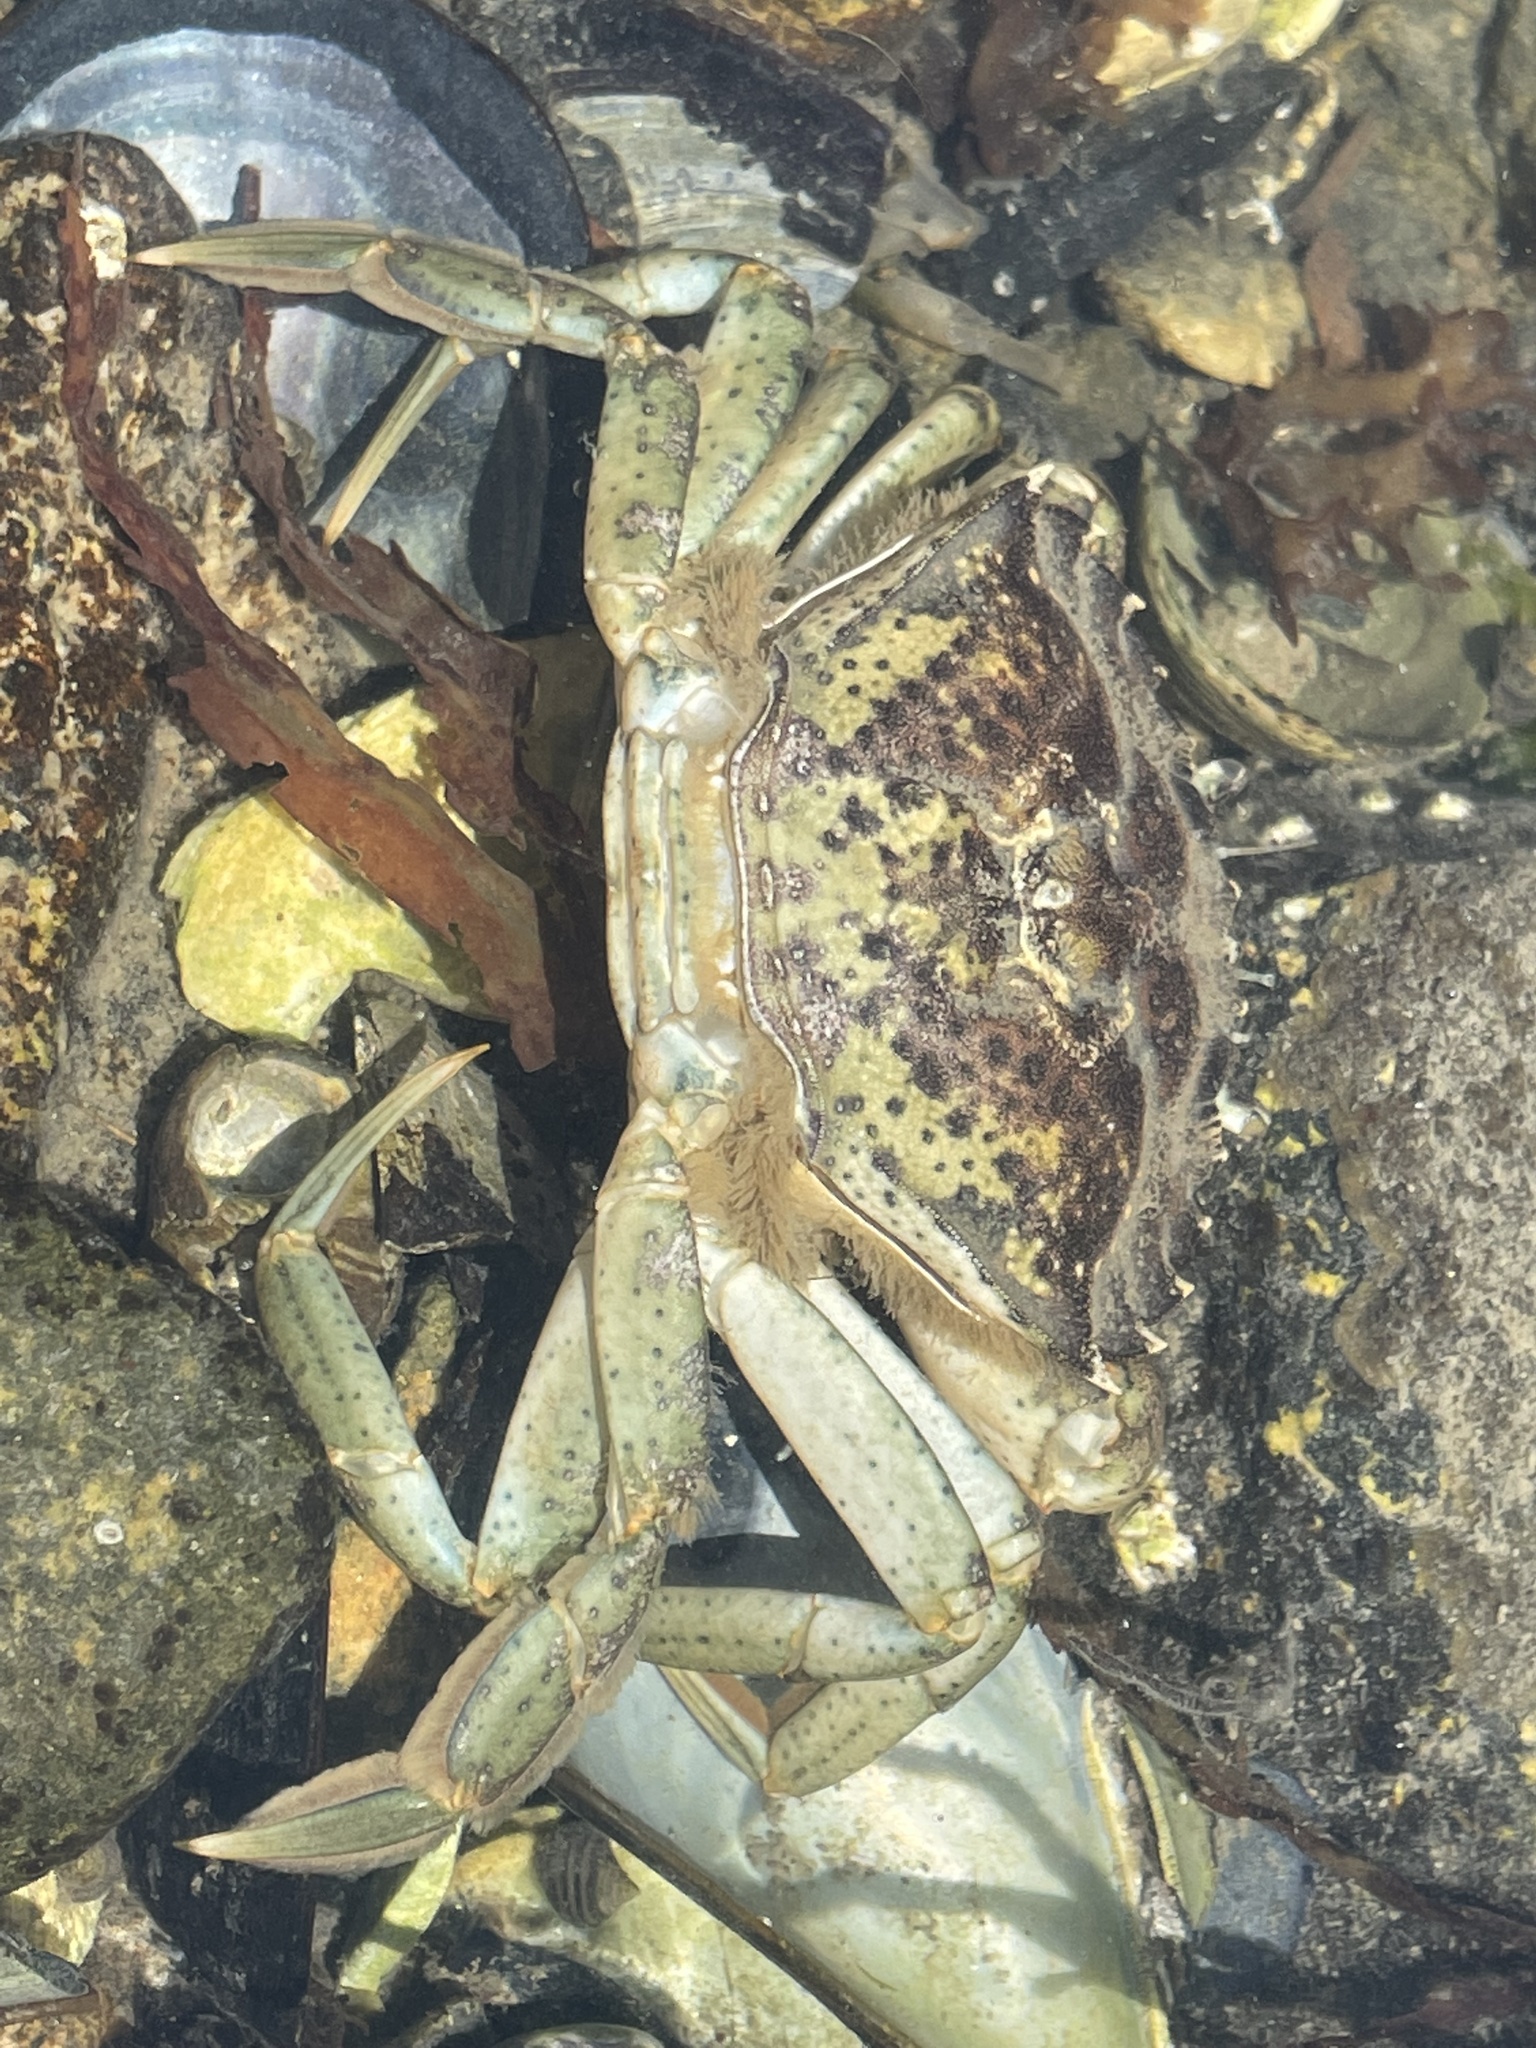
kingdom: Animalia
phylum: Arthropoda
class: Malacostraca
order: Decapoda
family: Carcinidae
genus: Carcinus
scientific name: Carcinus maenas
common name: European green crab
